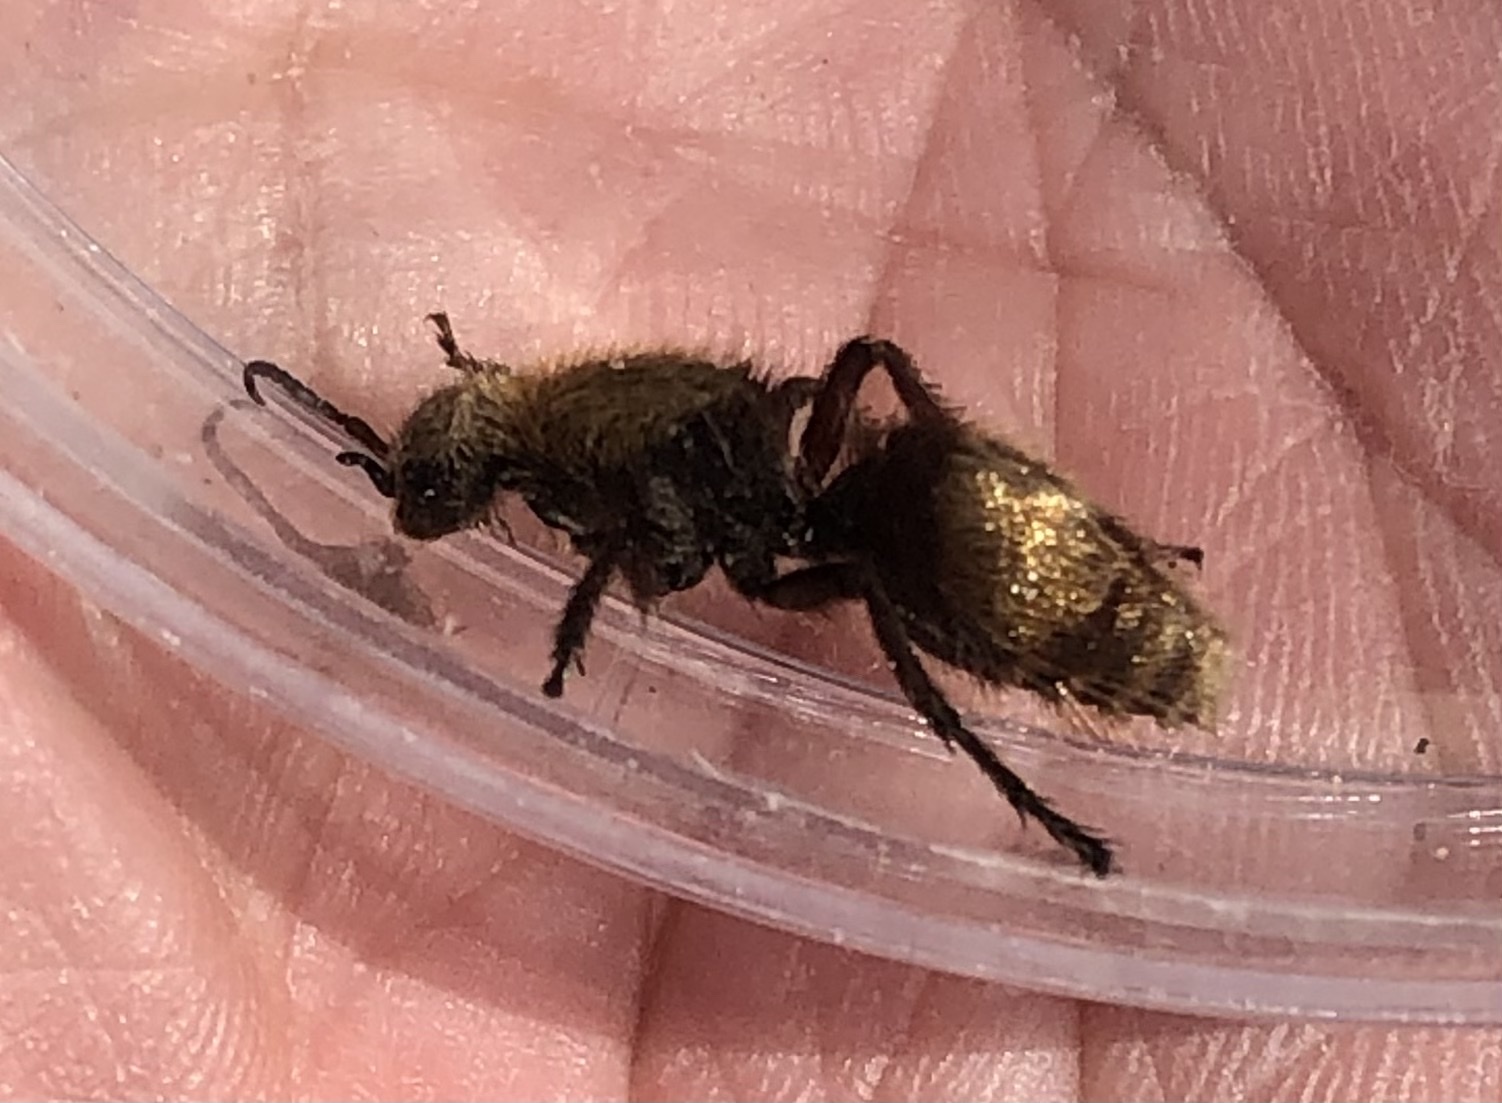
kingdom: Animalia
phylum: Arthropoda
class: Insecta
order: Hymenoptera
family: Mutillidae
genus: Dasymutilla
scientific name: Dasymutilla
